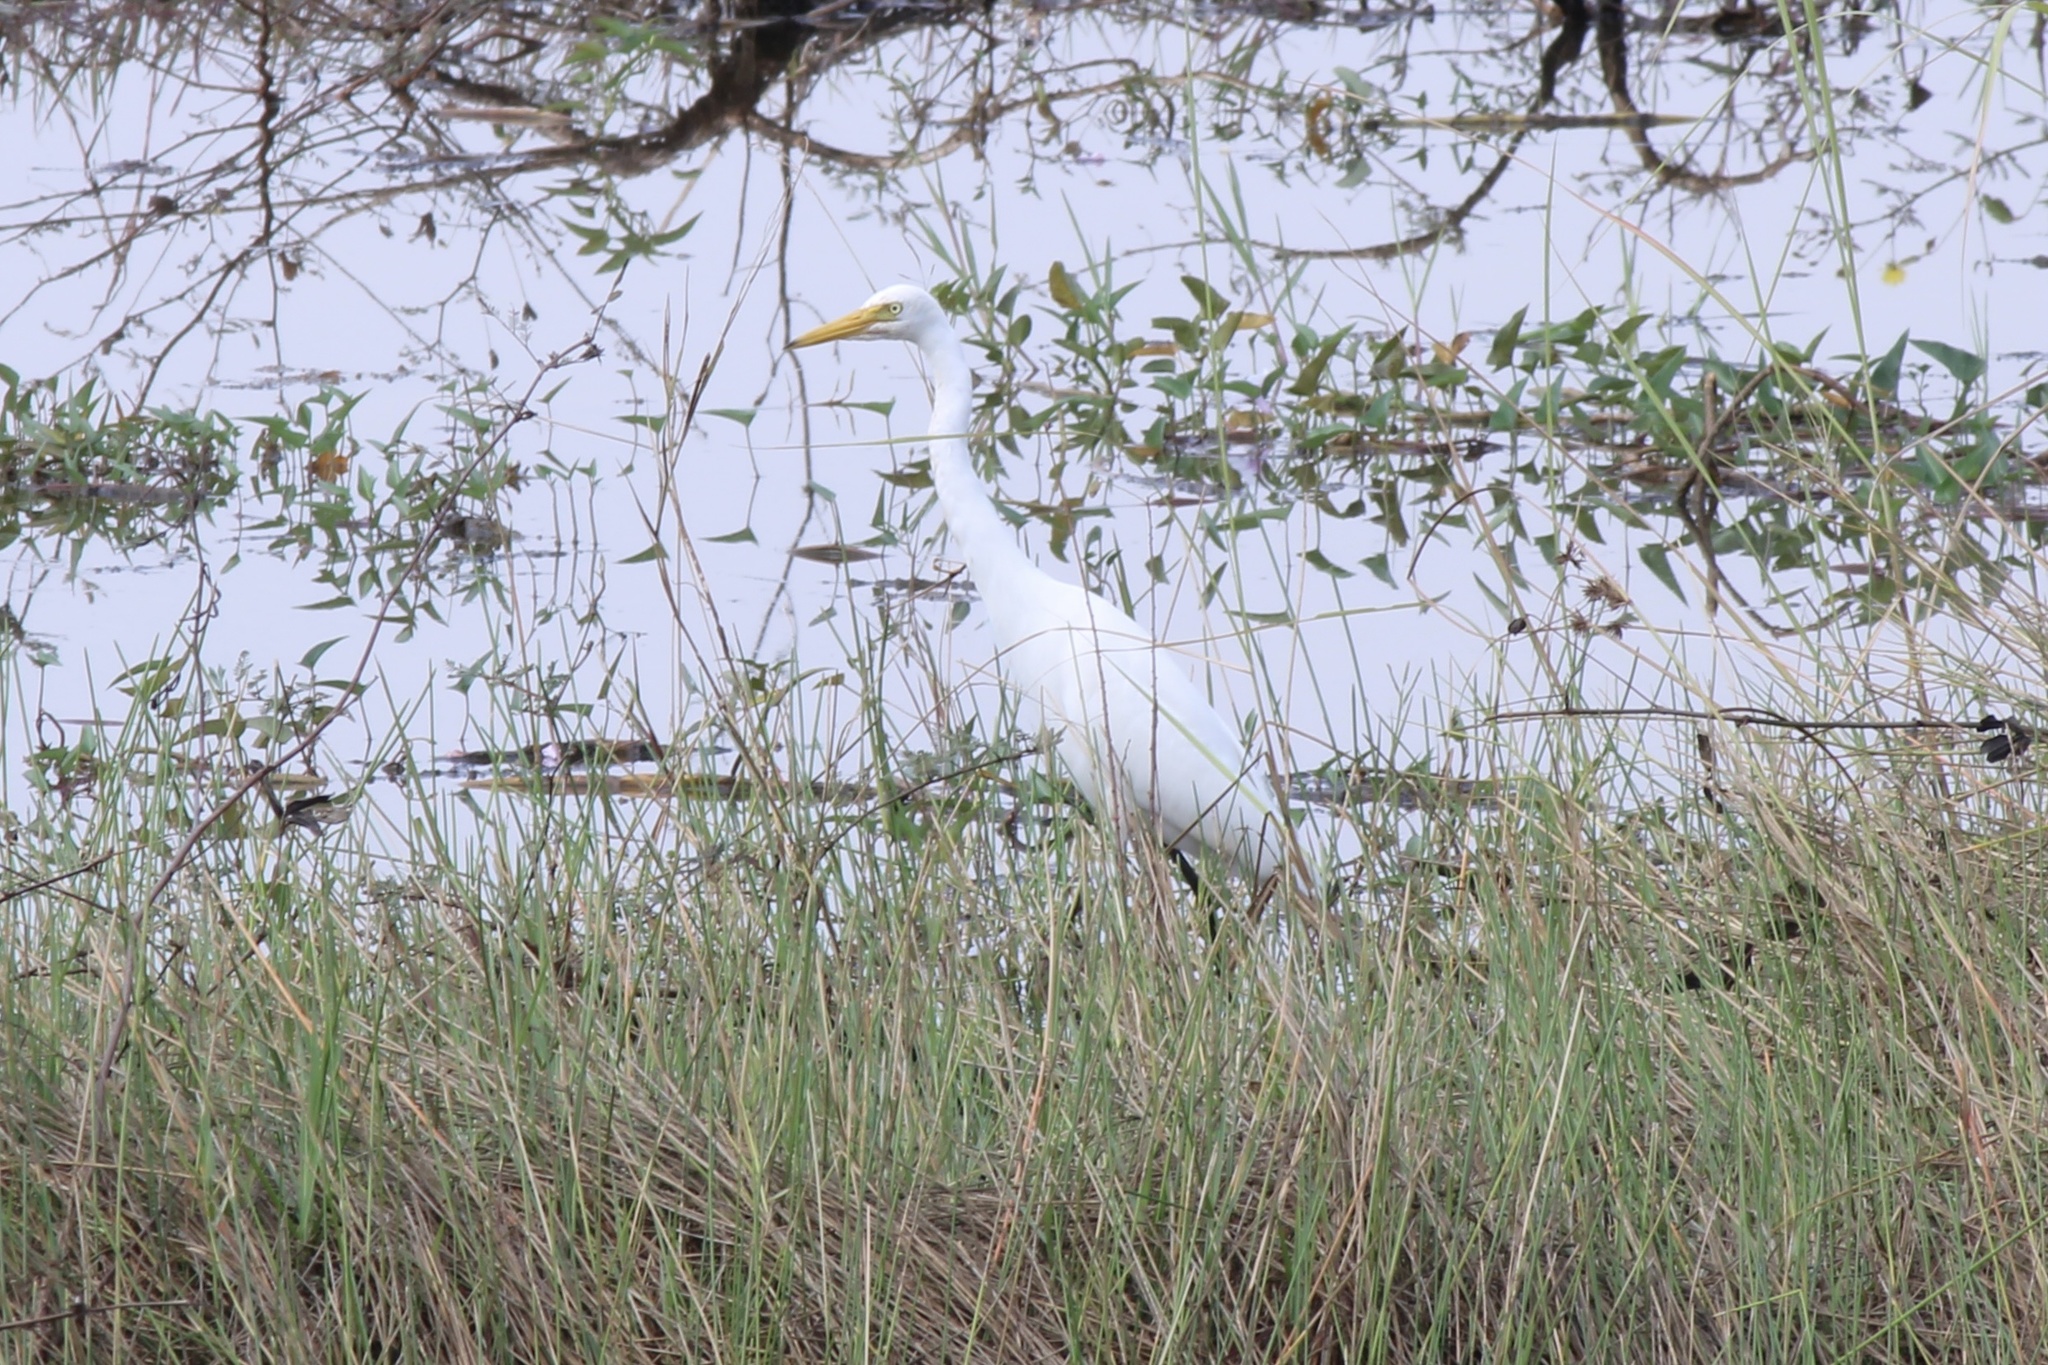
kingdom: Animalia
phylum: Chordata
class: Aves
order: Pelecaniformes
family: Ardeidae
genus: Egretta
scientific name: Egretta intermedia
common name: Intermediate egret
